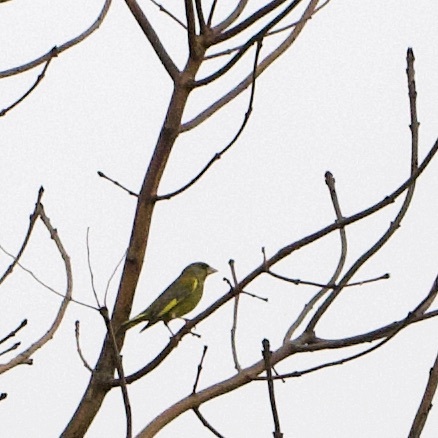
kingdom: Plantae
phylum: Tracheophyta
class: Liliopsida
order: Poales
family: Poaceae
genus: Chloris
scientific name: Chloris chloris
